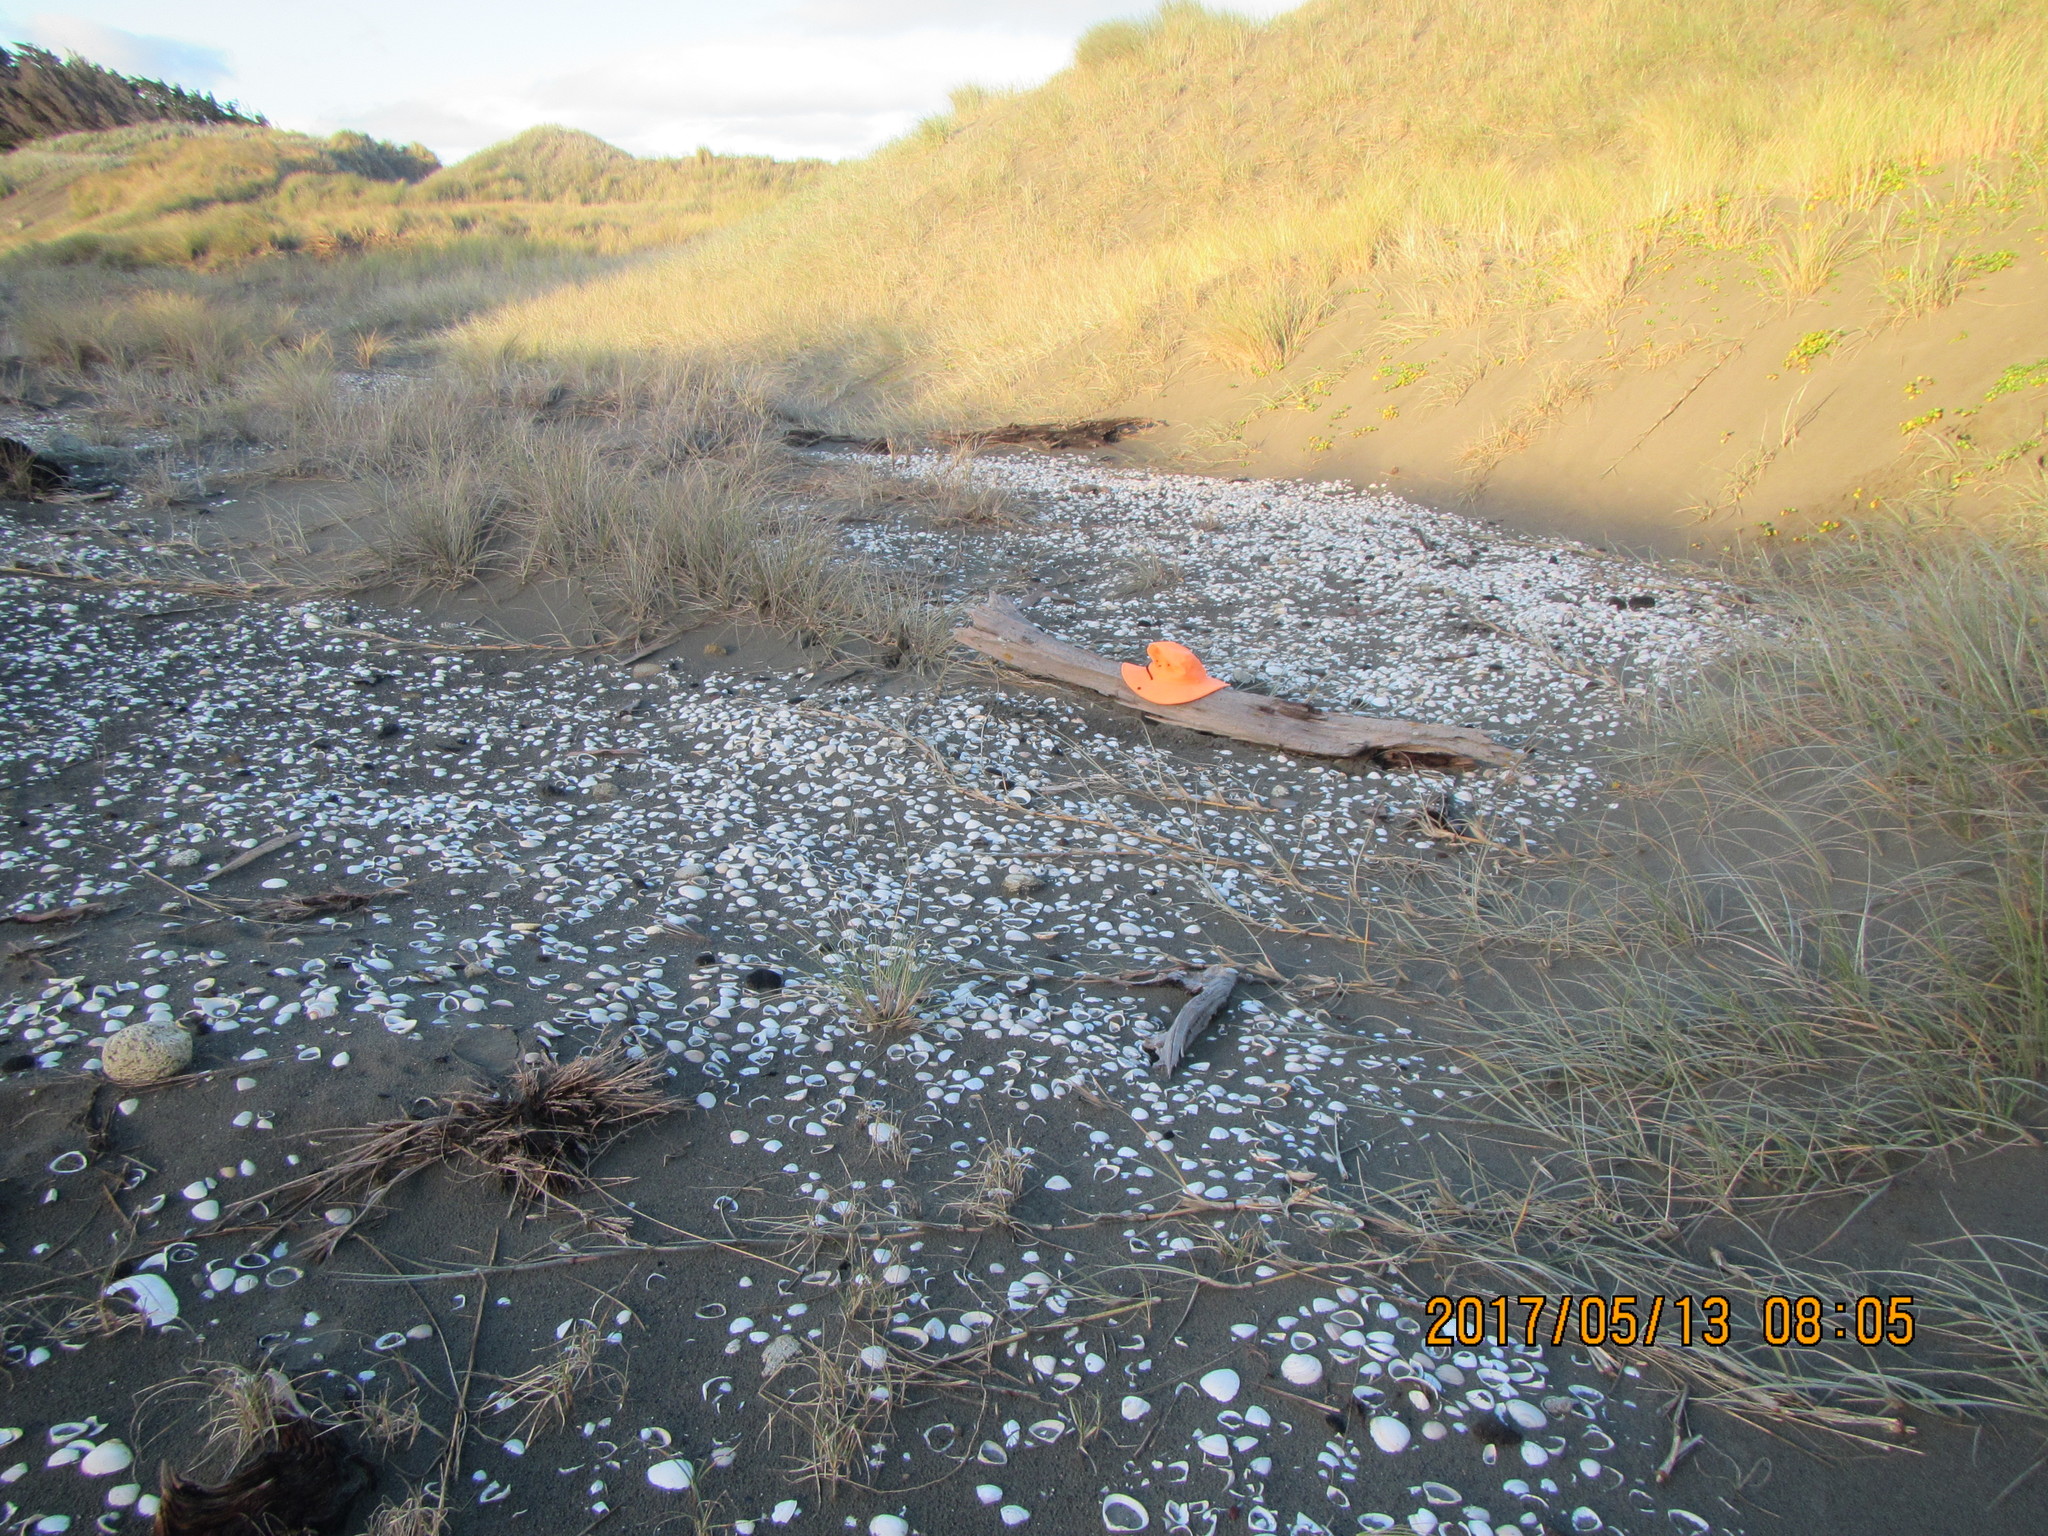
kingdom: Animalia
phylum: Arthropoda
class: Insecta
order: Dermaptera
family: Anisolabididae
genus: Anisolabis
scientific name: Anisolabis littorea
